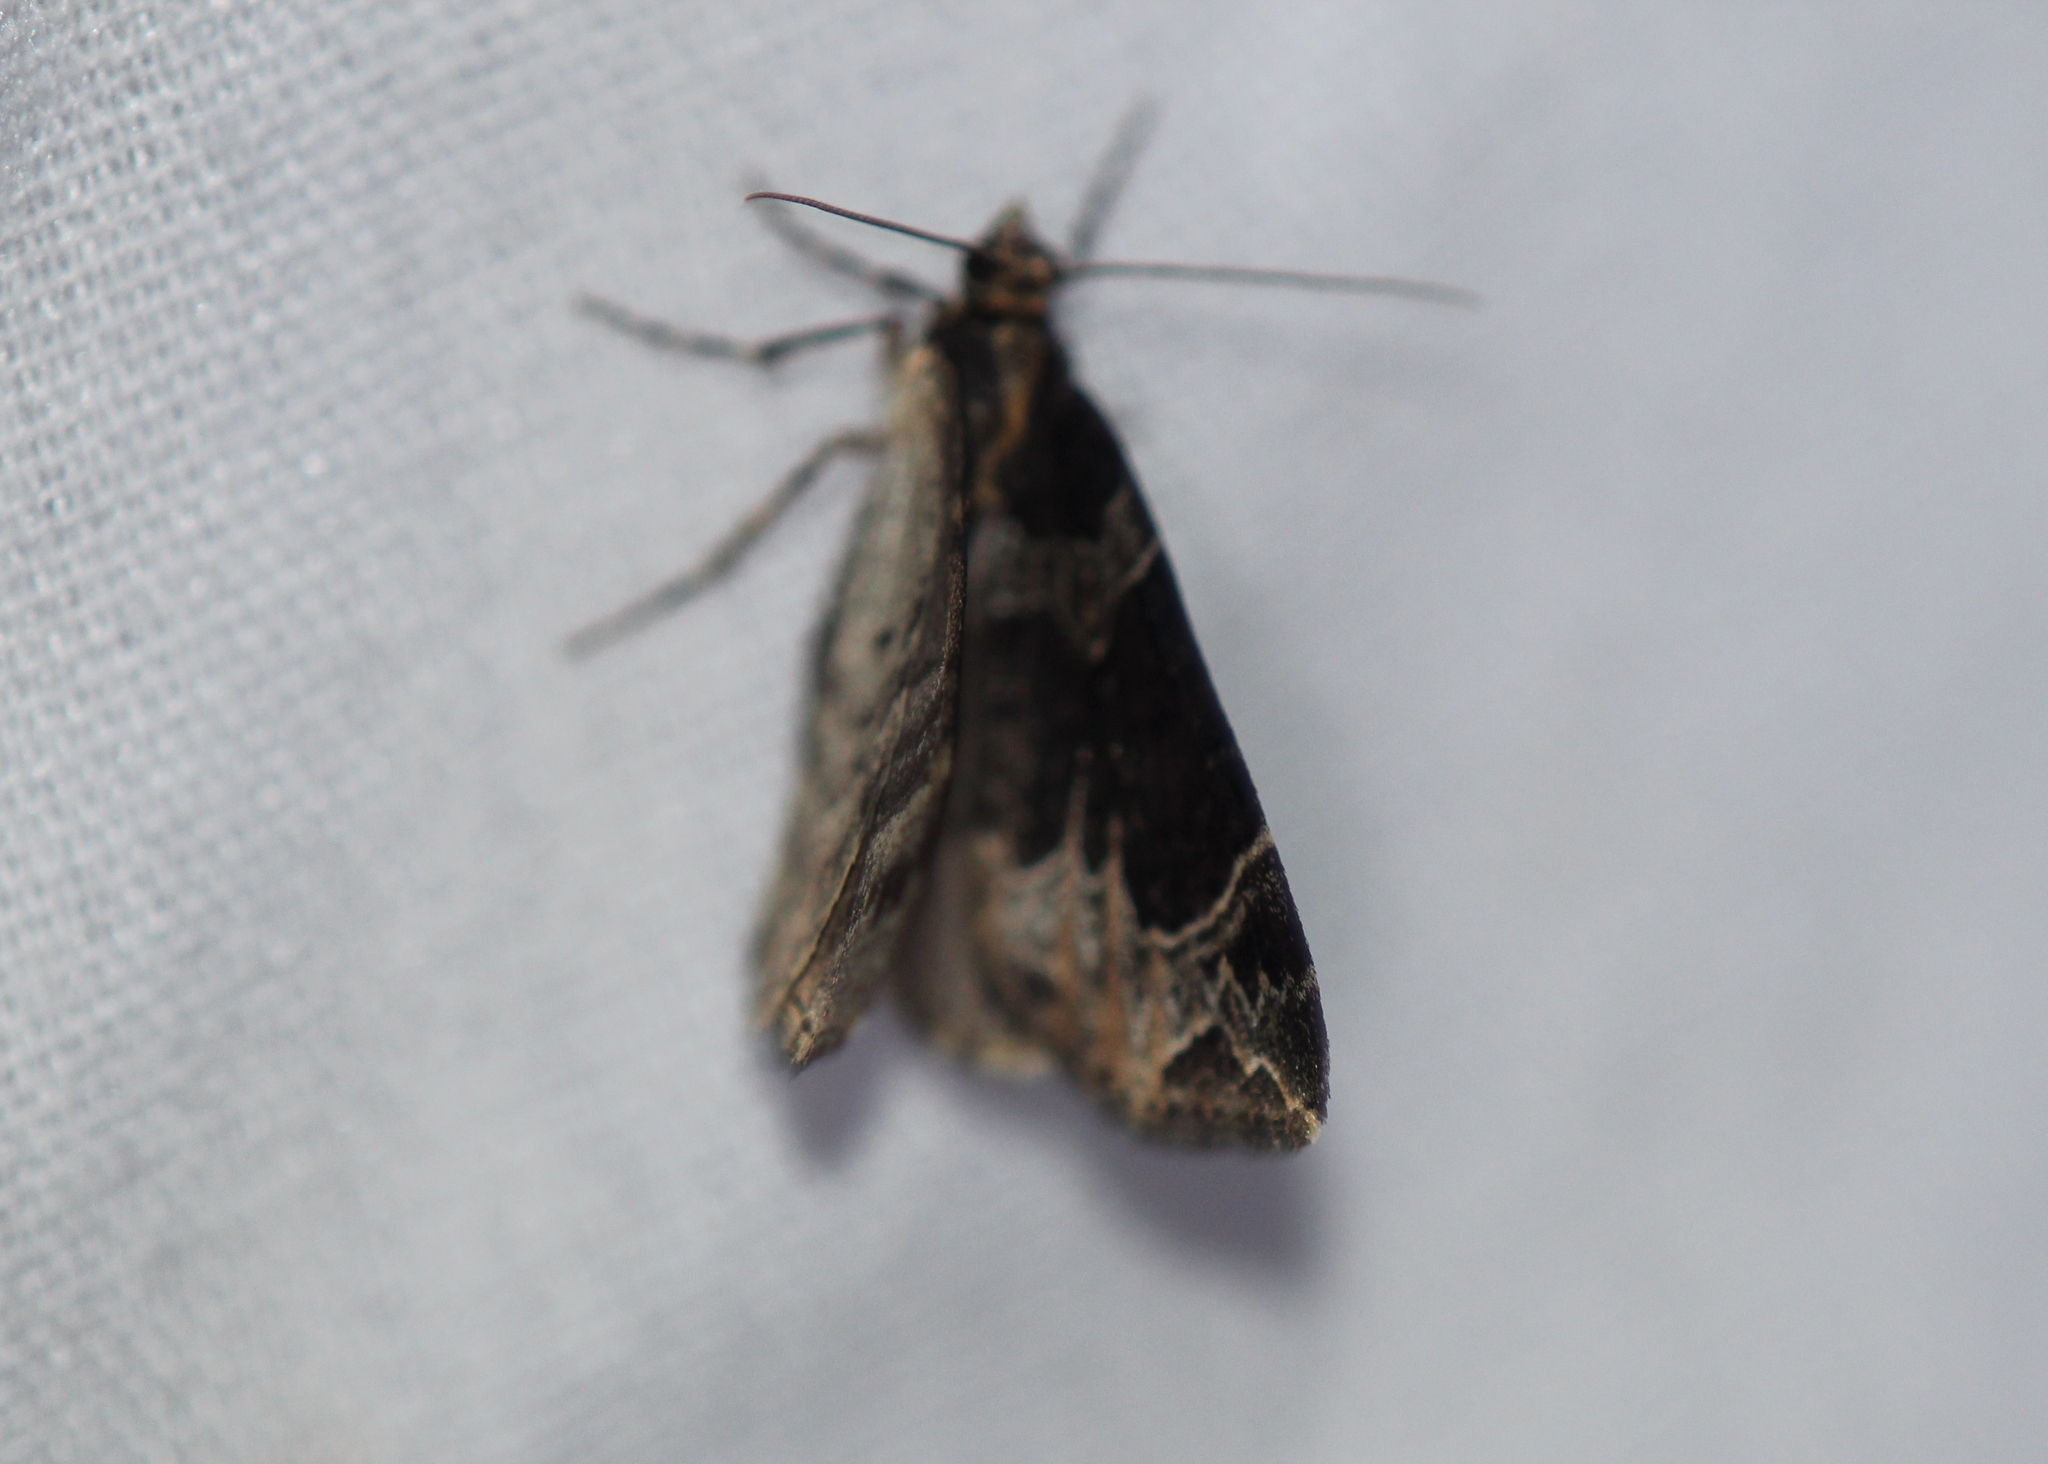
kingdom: Animalia
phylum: Arthropoda
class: Insecta
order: Lepidoptera
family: Geometridae
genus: Ecliptopera
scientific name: Ecliptopera silaceata
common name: Small phoenix
